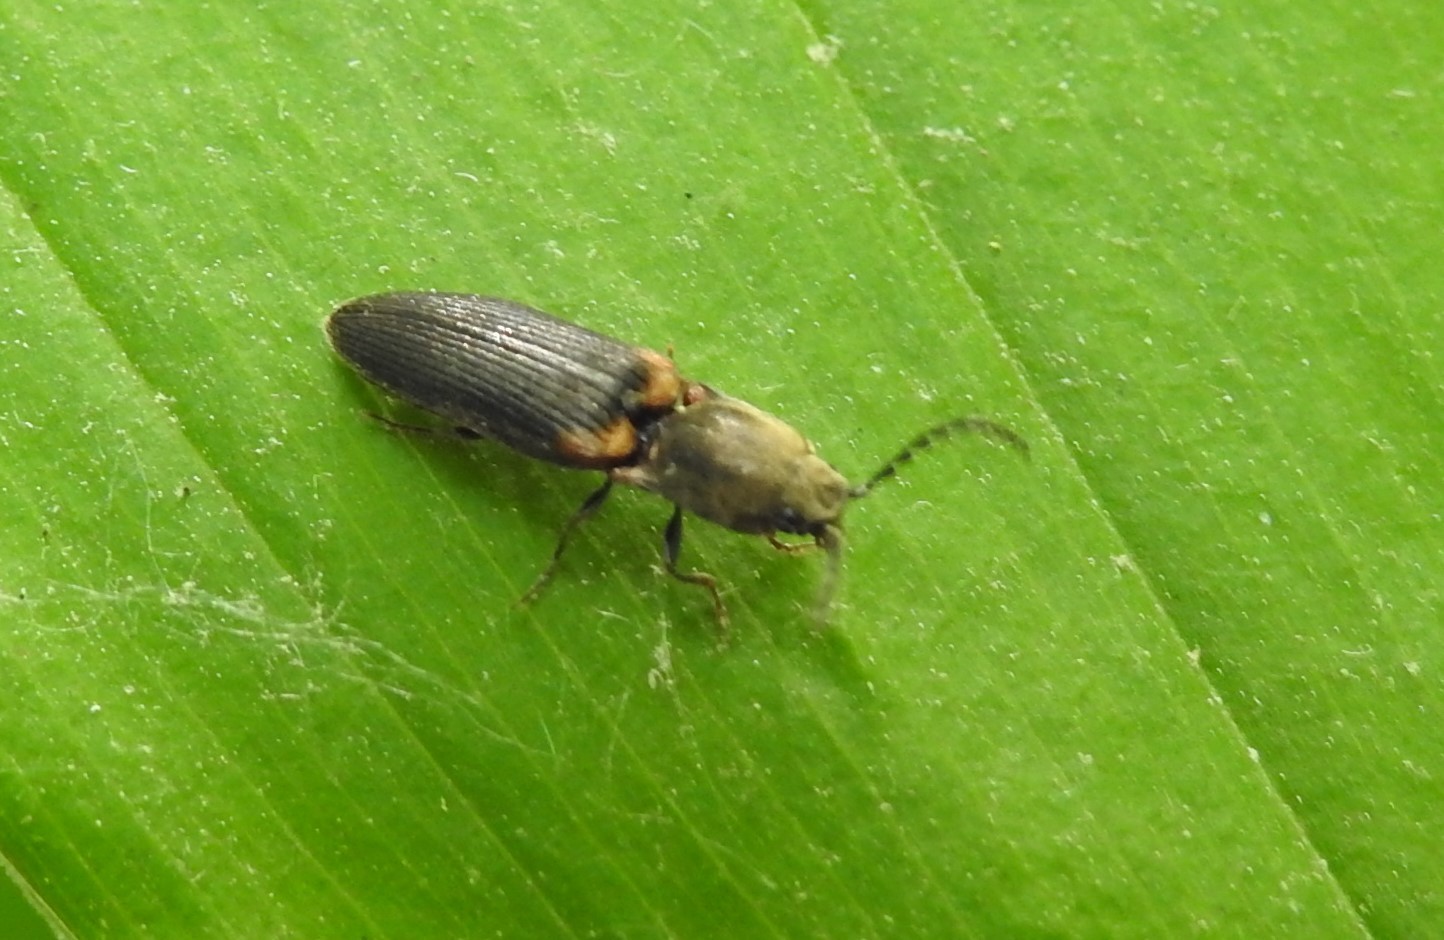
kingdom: Animalia
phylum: Arthropoda
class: Insecta
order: Coleoptera
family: Elateridae
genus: Limonius
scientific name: Limonius auripilis
